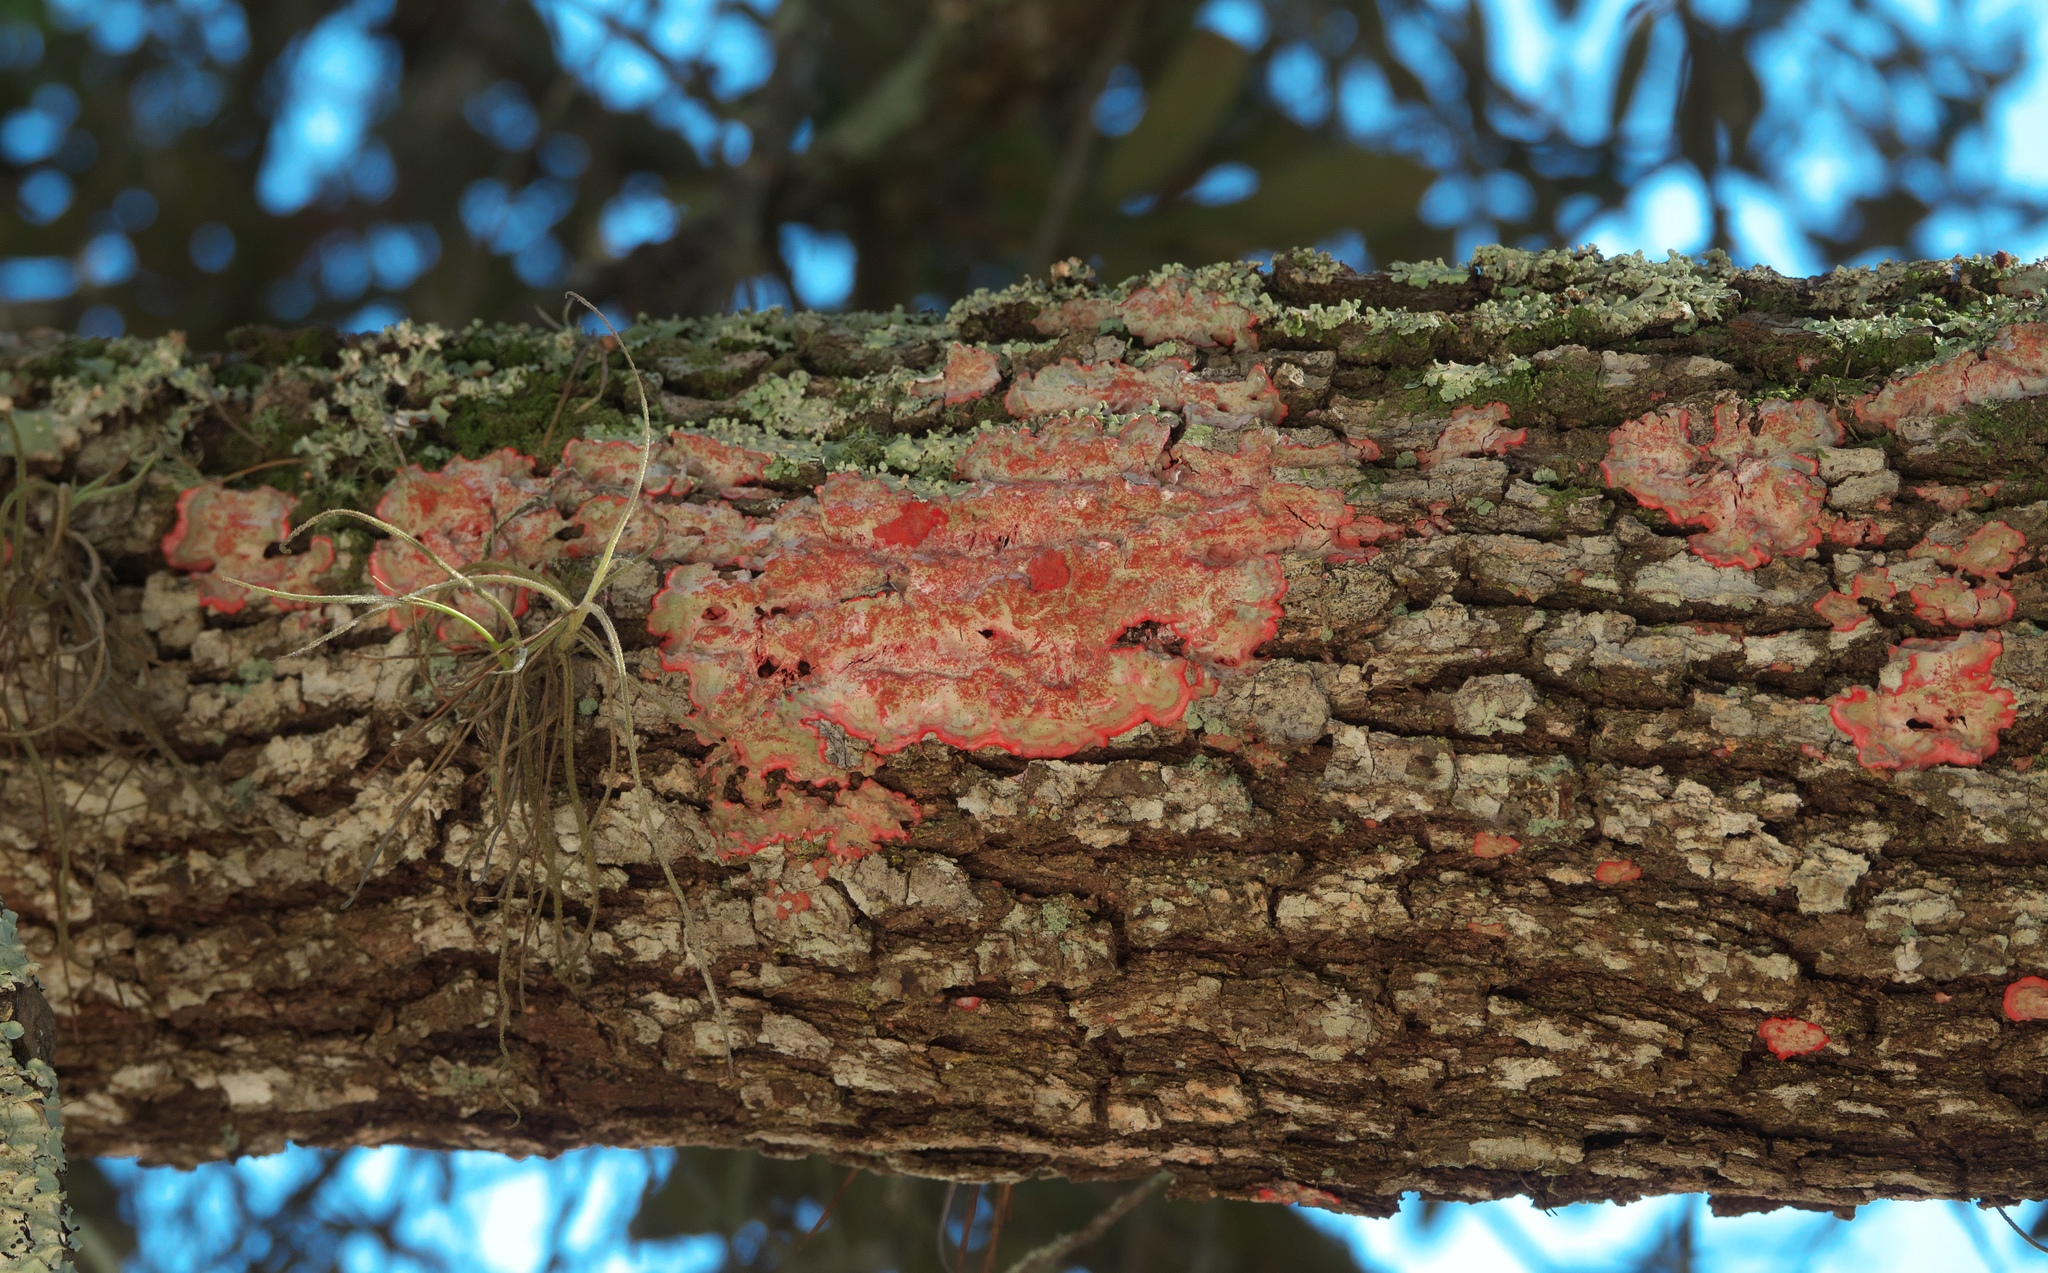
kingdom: Fungi
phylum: Ascomycota
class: Arthoniomycetes
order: Arthoniales
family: Arthoniaceae
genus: Herpothallon
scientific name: Herpothallon rubrocinctum
